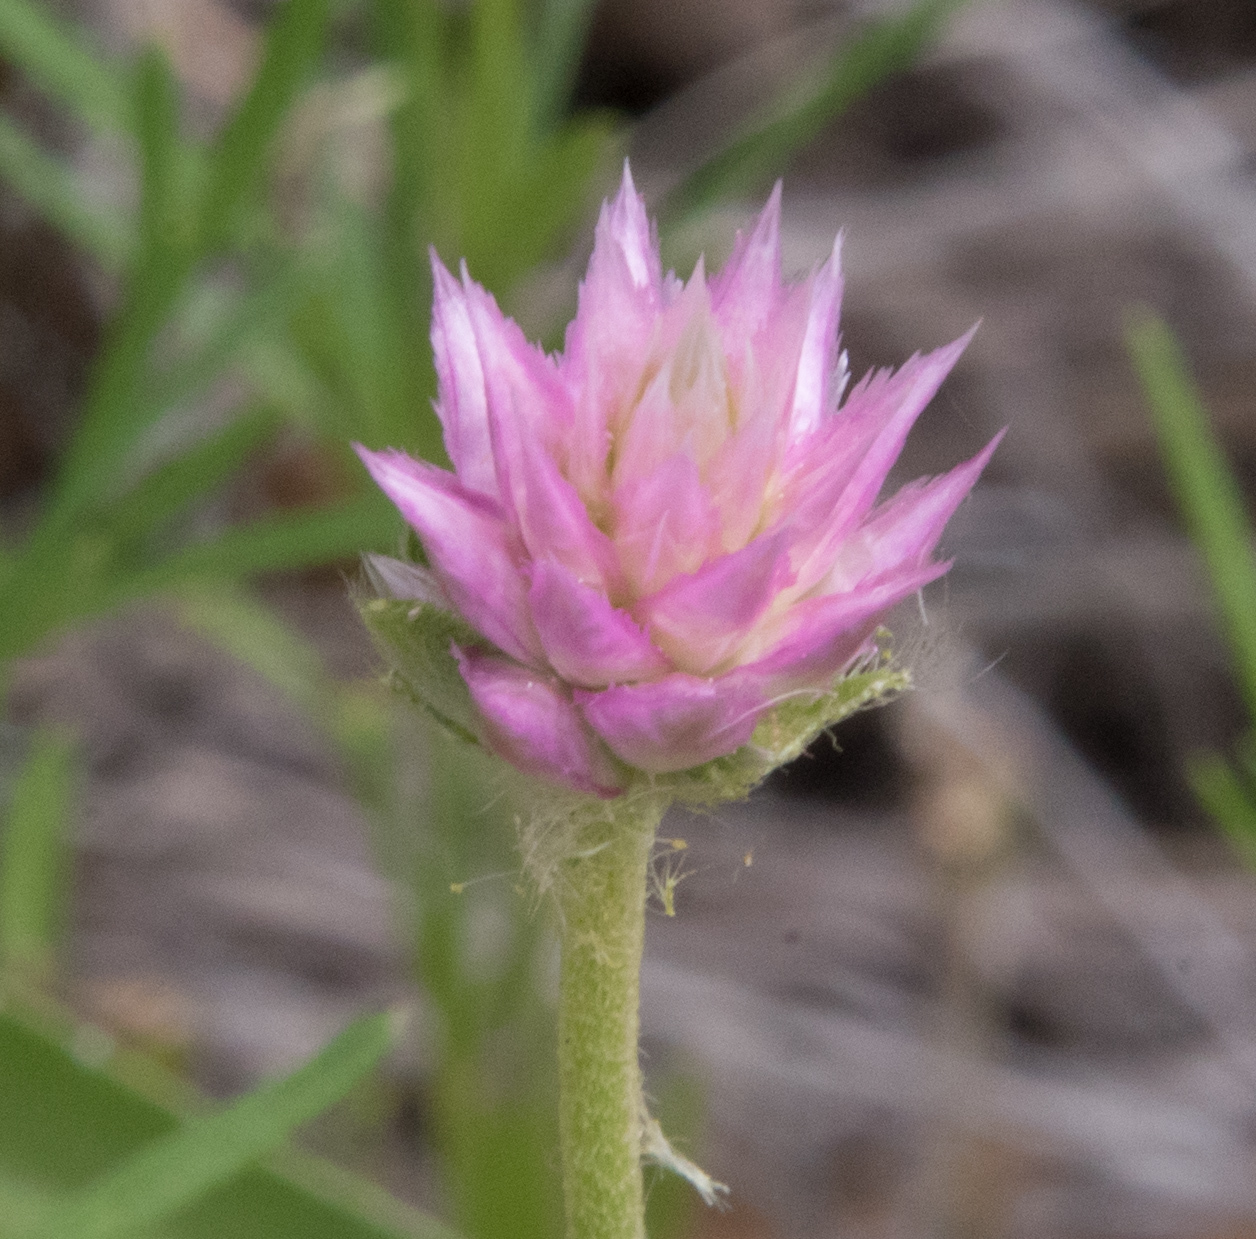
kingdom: Plantae
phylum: Tracheophyta
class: Magnoliopsida
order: Caryophyllales
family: Amaranthaceae
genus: Gomphrena
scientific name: Gomphrena nitida
